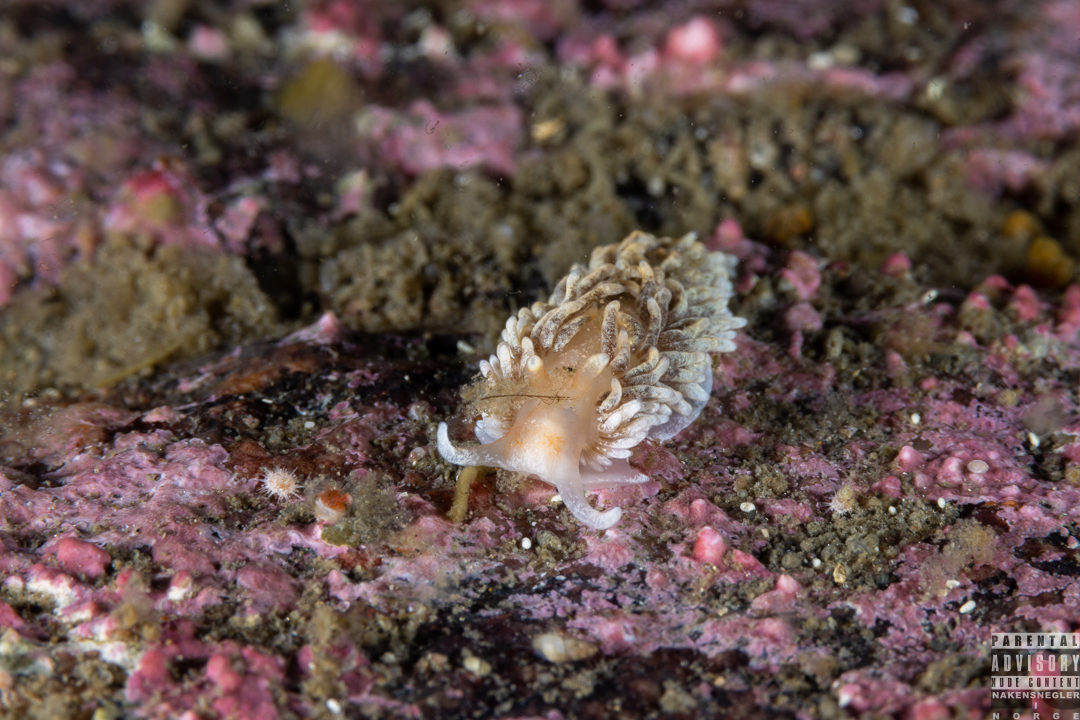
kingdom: Animalia
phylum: Mollusca
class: Gastropoda
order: Nudibranchia
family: Aeolidiidae
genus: Aeolidiella
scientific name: Aeolidiella glauca
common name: Orange-brown aeolid
